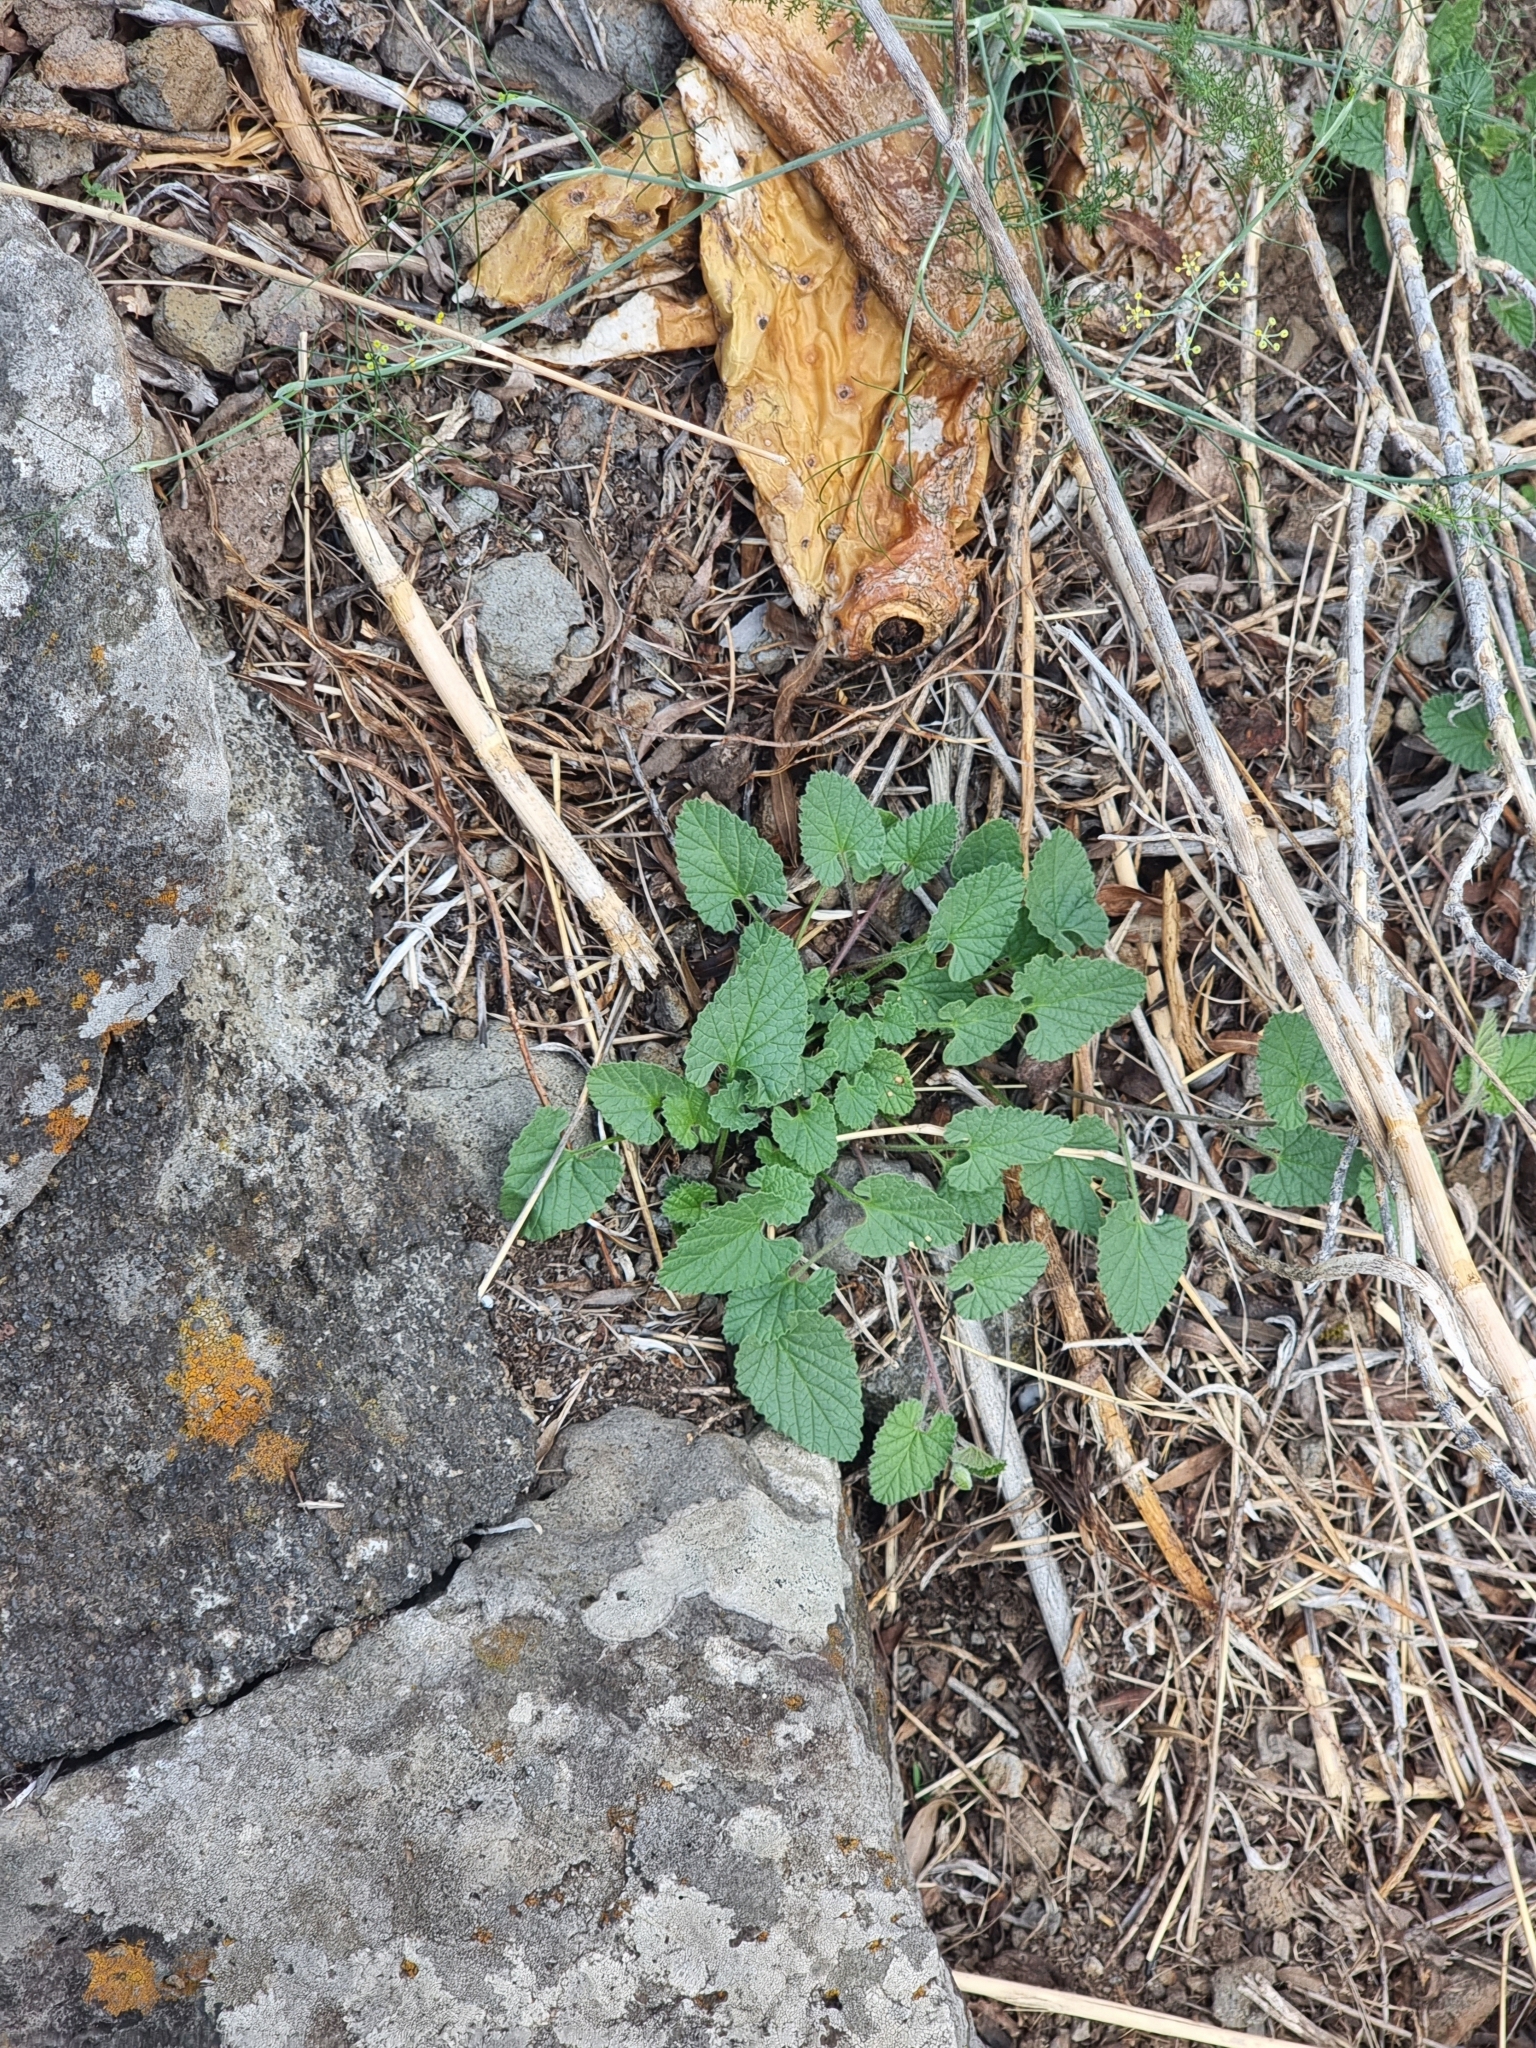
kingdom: Plantae
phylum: Tracheophyta
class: Magnoliopsida
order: Solanales
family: Convolvulaceae
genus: Convolvulus
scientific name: Convolvulus althaeoides
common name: Mallow bindweed
